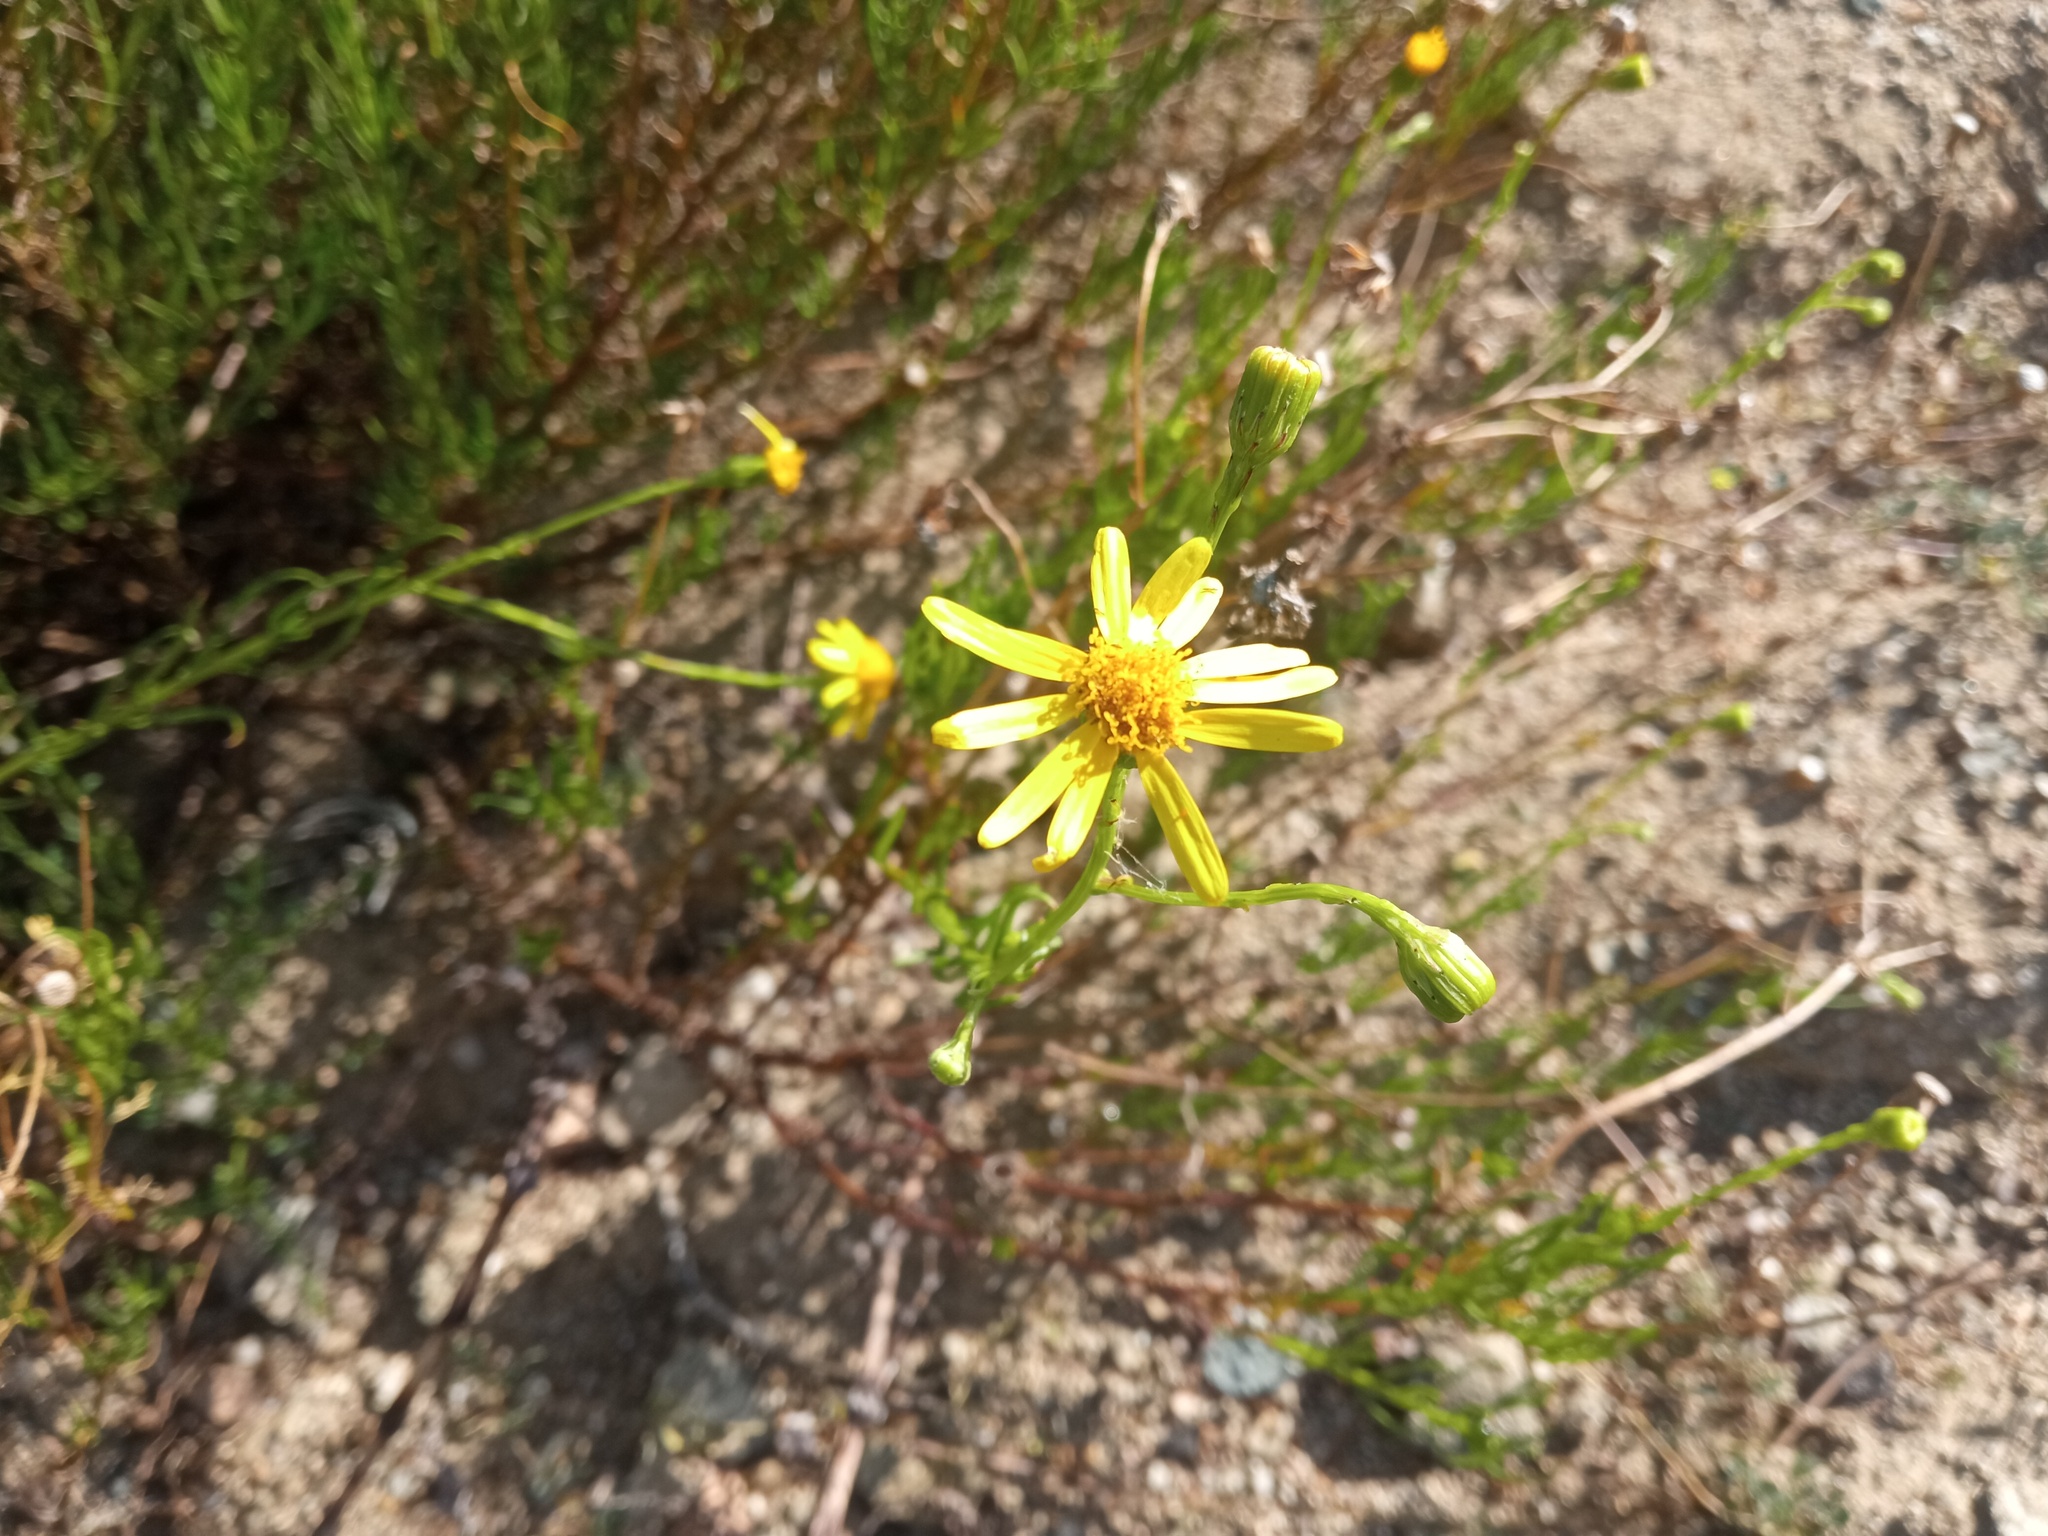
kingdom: Plantae
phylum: Tracheophyta
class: Magnoliopsida
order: Asterales
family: Asteraceae
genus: Senecio
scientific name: Senecio inaequidens
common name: Narrow-leaved ragwort
